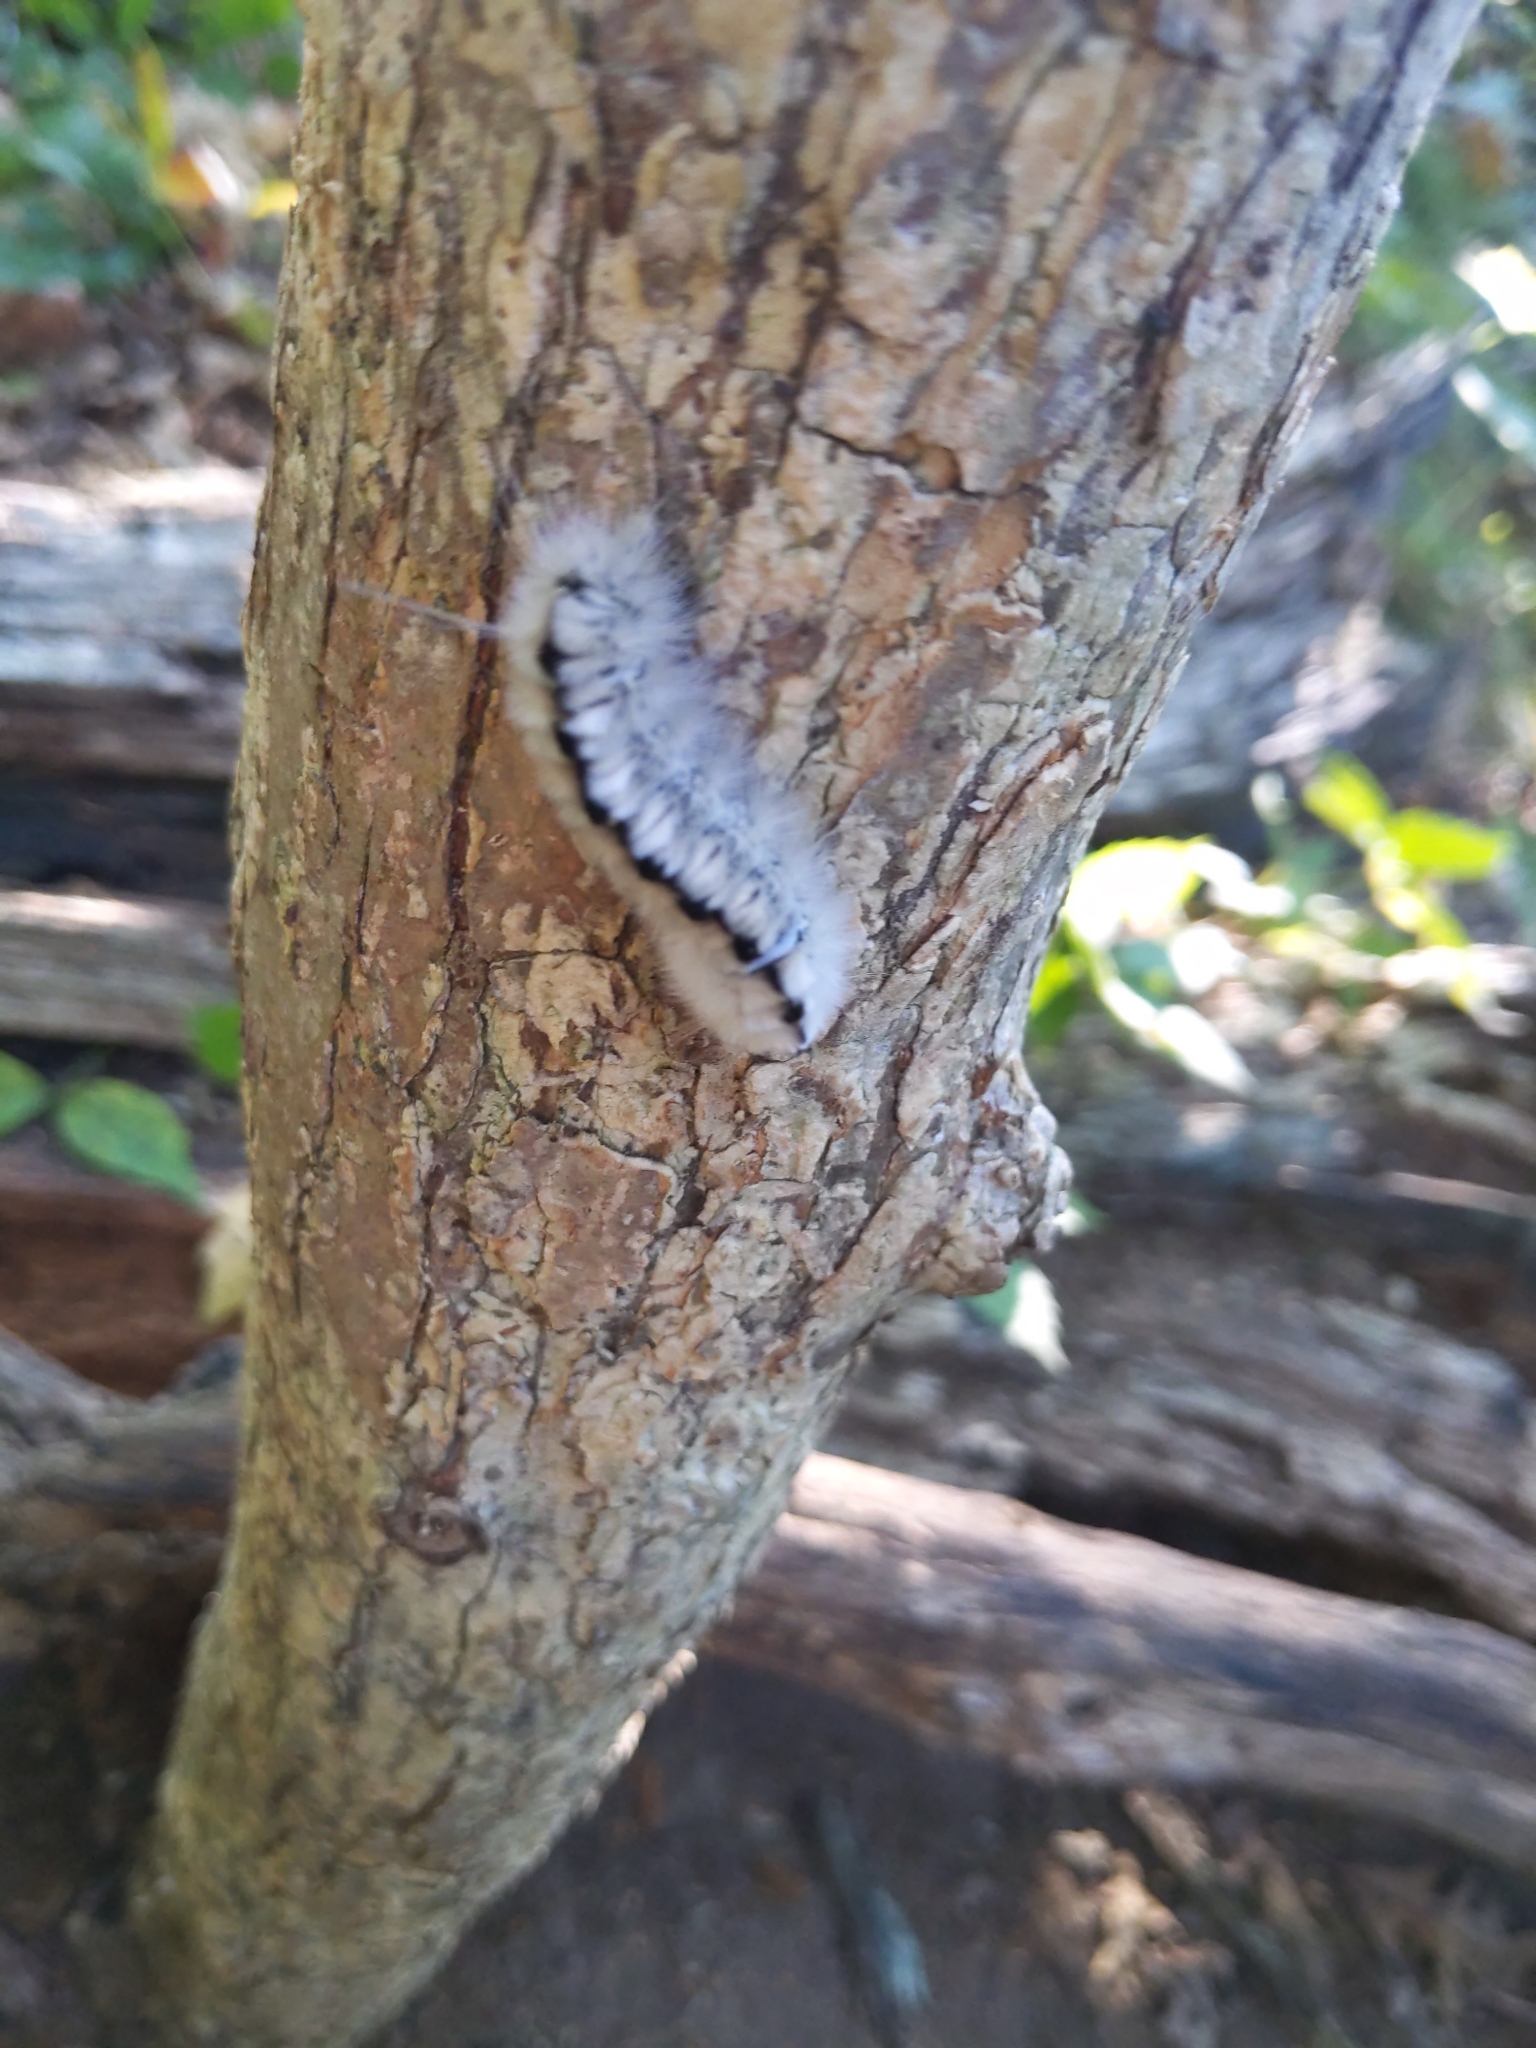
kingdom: Animalia
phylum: Arthropoda
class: Insecta
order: Lepidoptera
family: Erebidae
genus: Lophocampa
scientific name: Lophocampa caryae
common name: Hickory tussock moth
